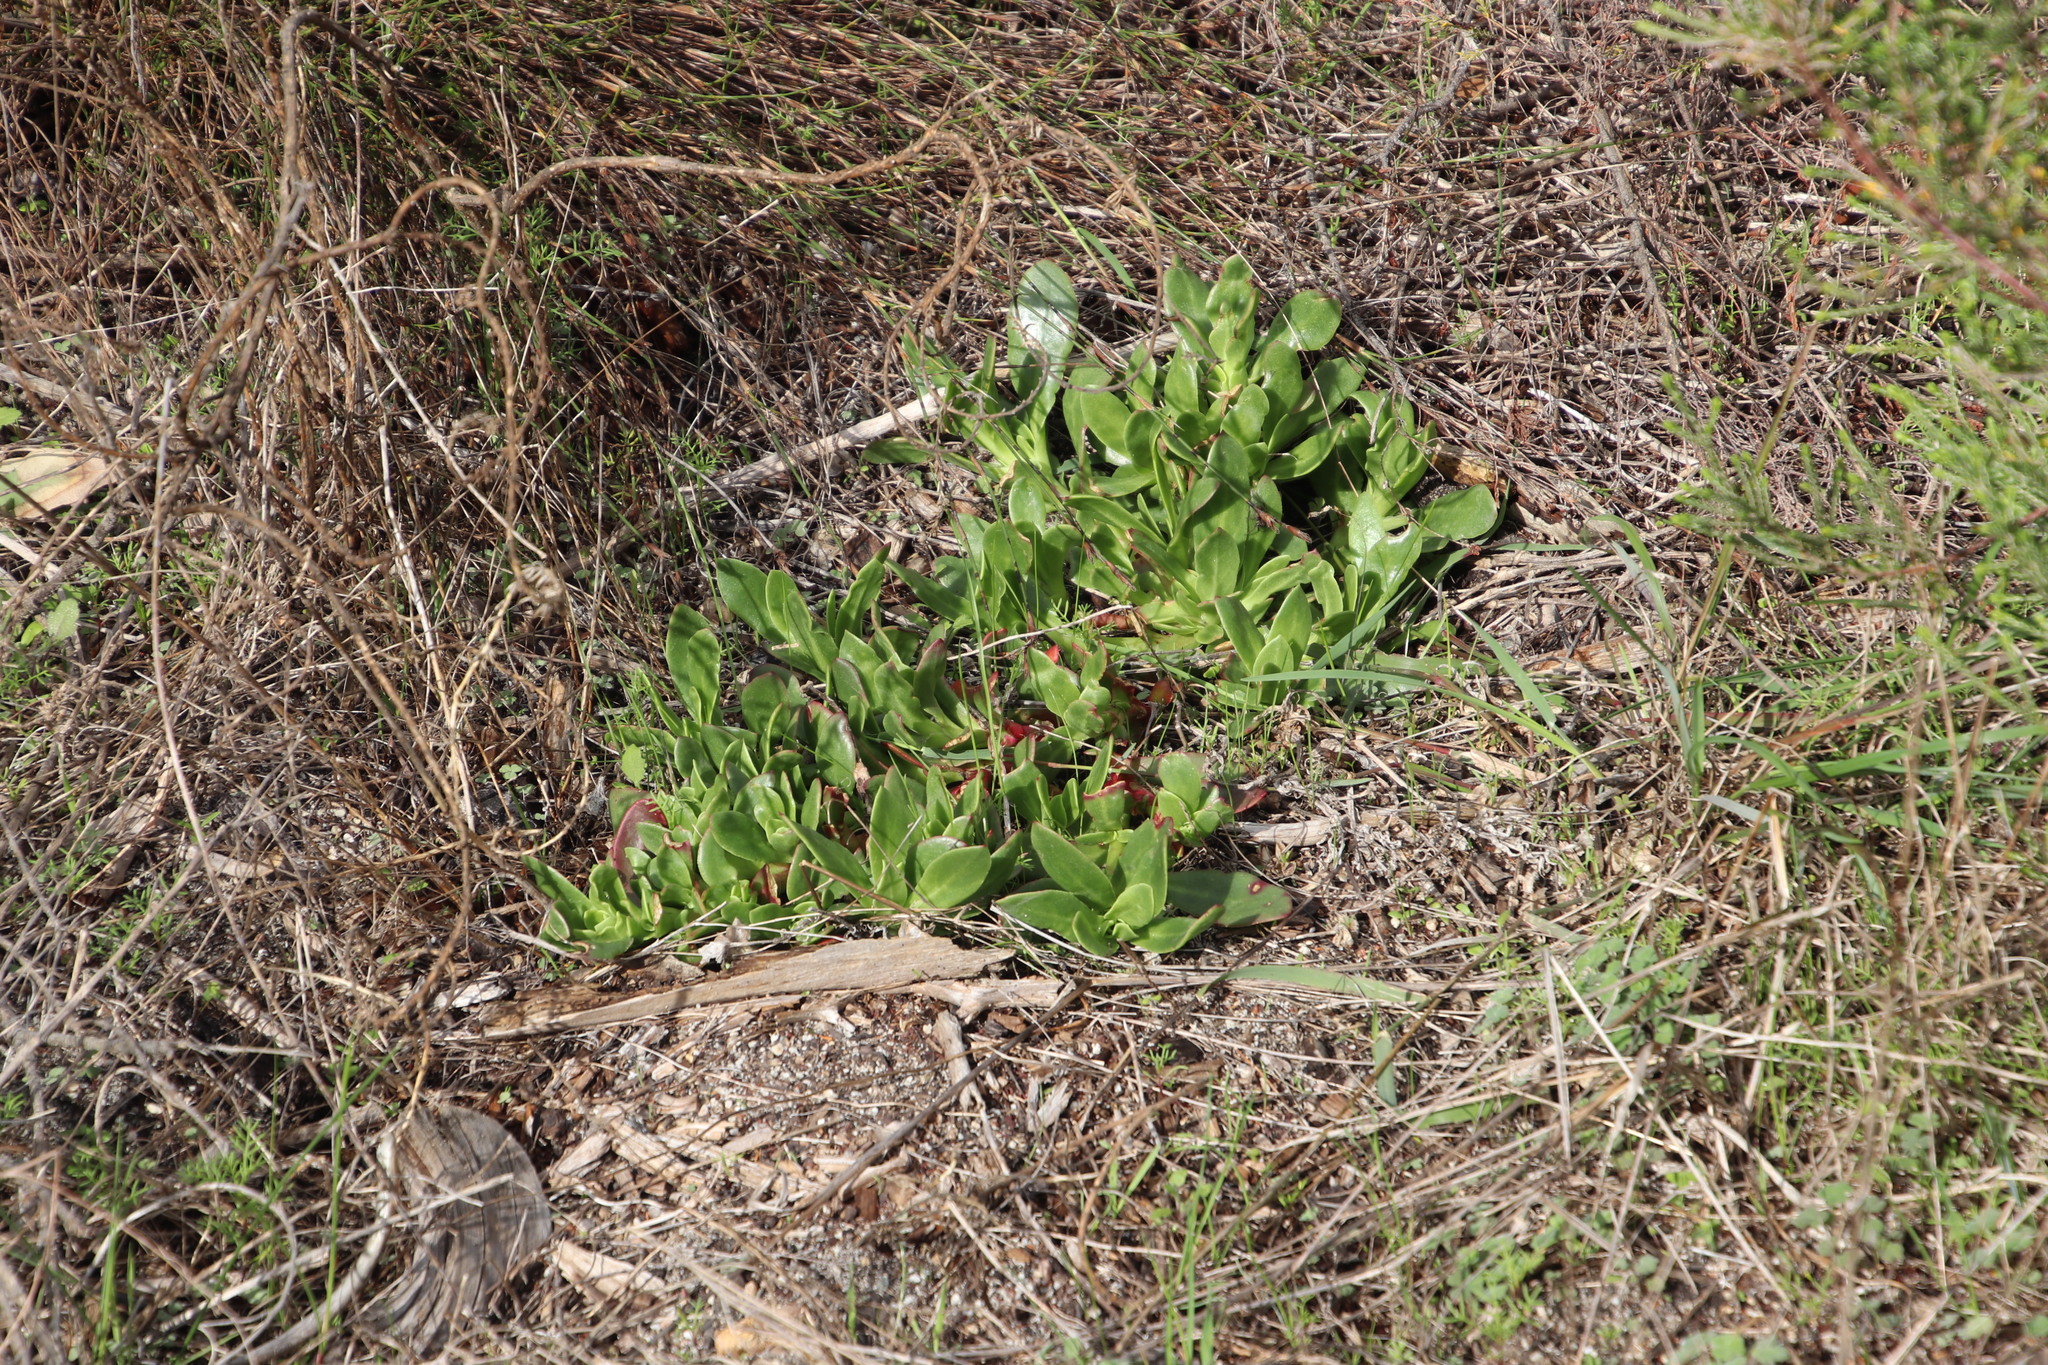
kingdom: Plantae
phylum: Tracheophyta
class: Magnoliopsida
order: Caryophyllales
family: Aizoaceae
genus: Skiatophytum
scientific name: Skiatophytum tripolium
